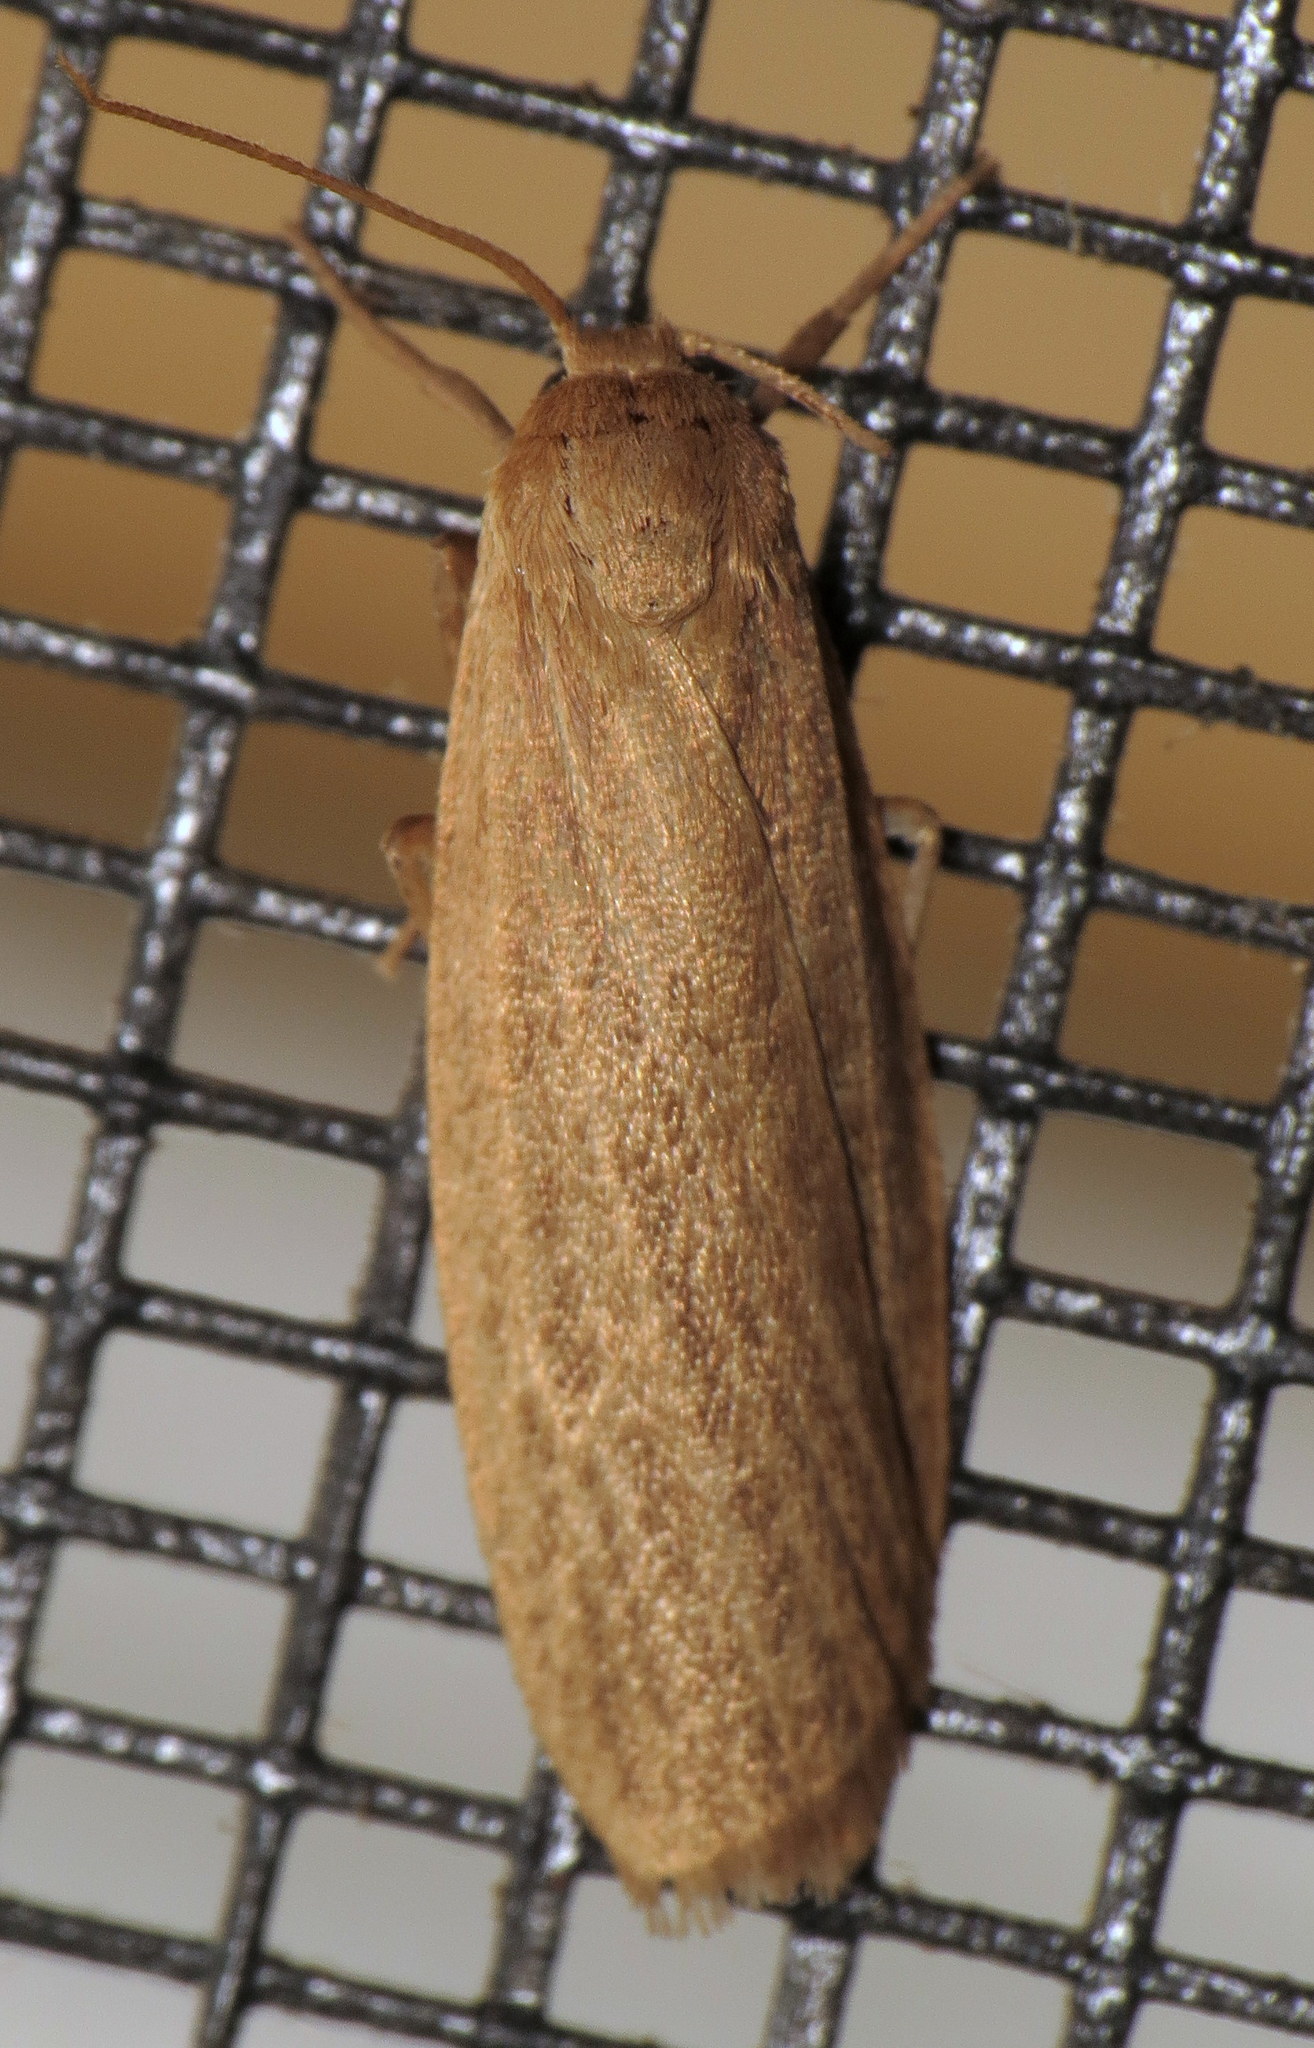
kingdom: Animalia
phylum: Arthropoda
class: Insecta
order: Lepidoptera
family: Erebidae
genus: Crambidia
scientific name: Crambidia pallida
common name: Pale lichen moth
